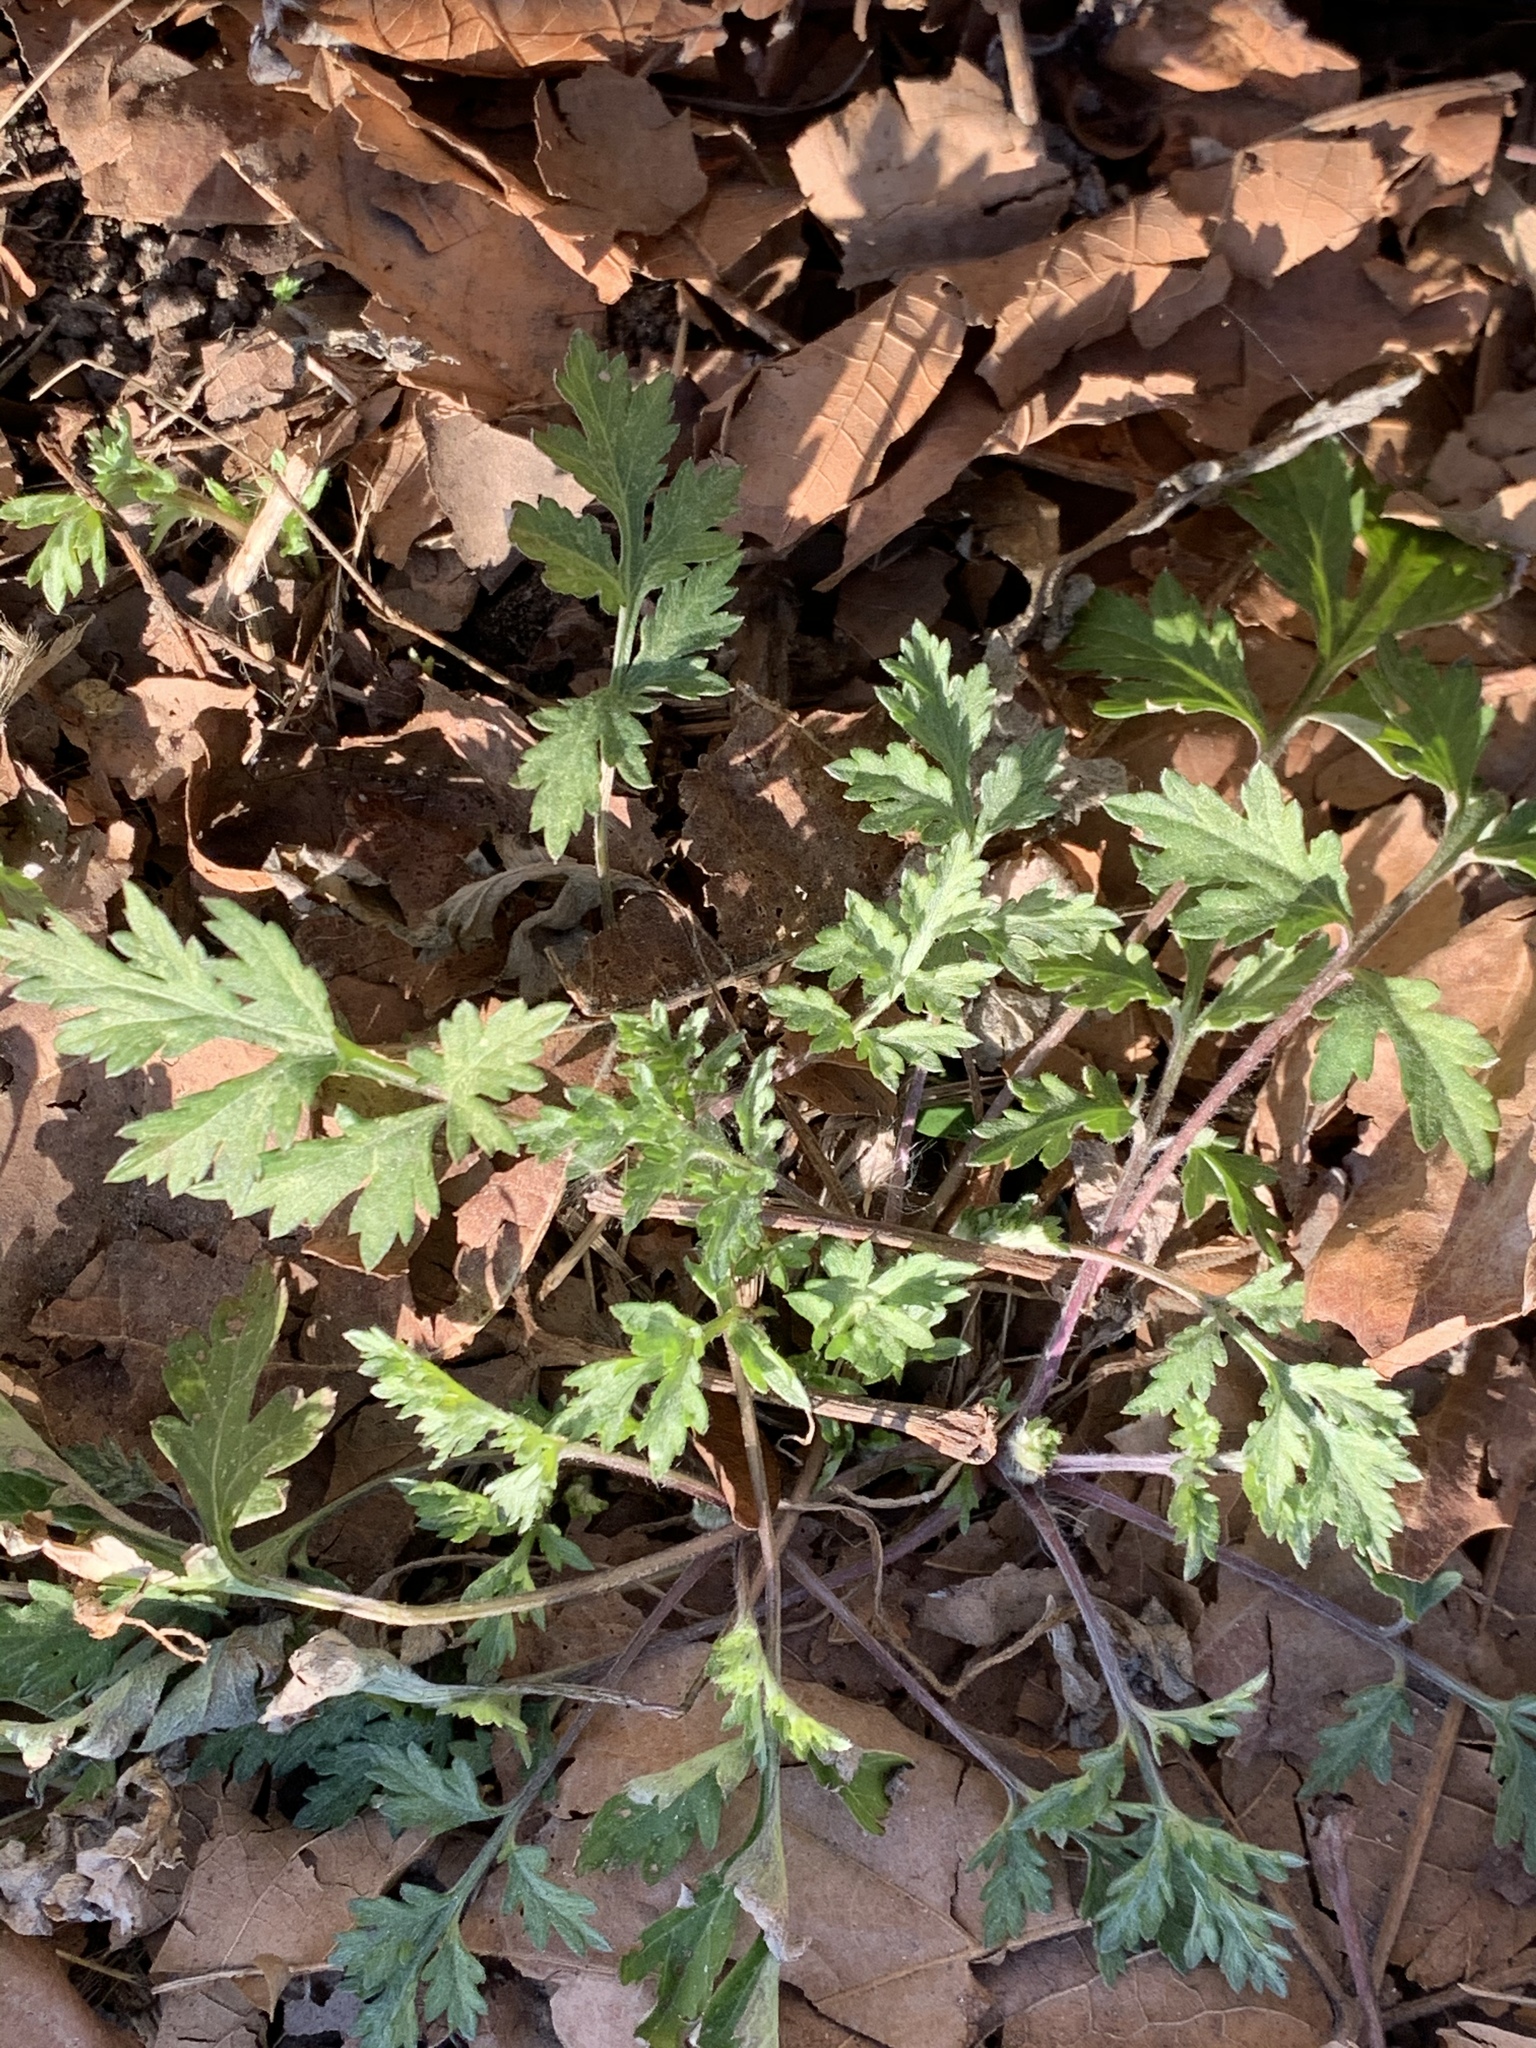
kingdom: Plantae
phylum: Tracheophyta
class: Magnoliopsida
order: Asterales
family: Asteraceae
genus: Artemisia
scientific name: Artemisia vulgaris
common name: Mugwort
